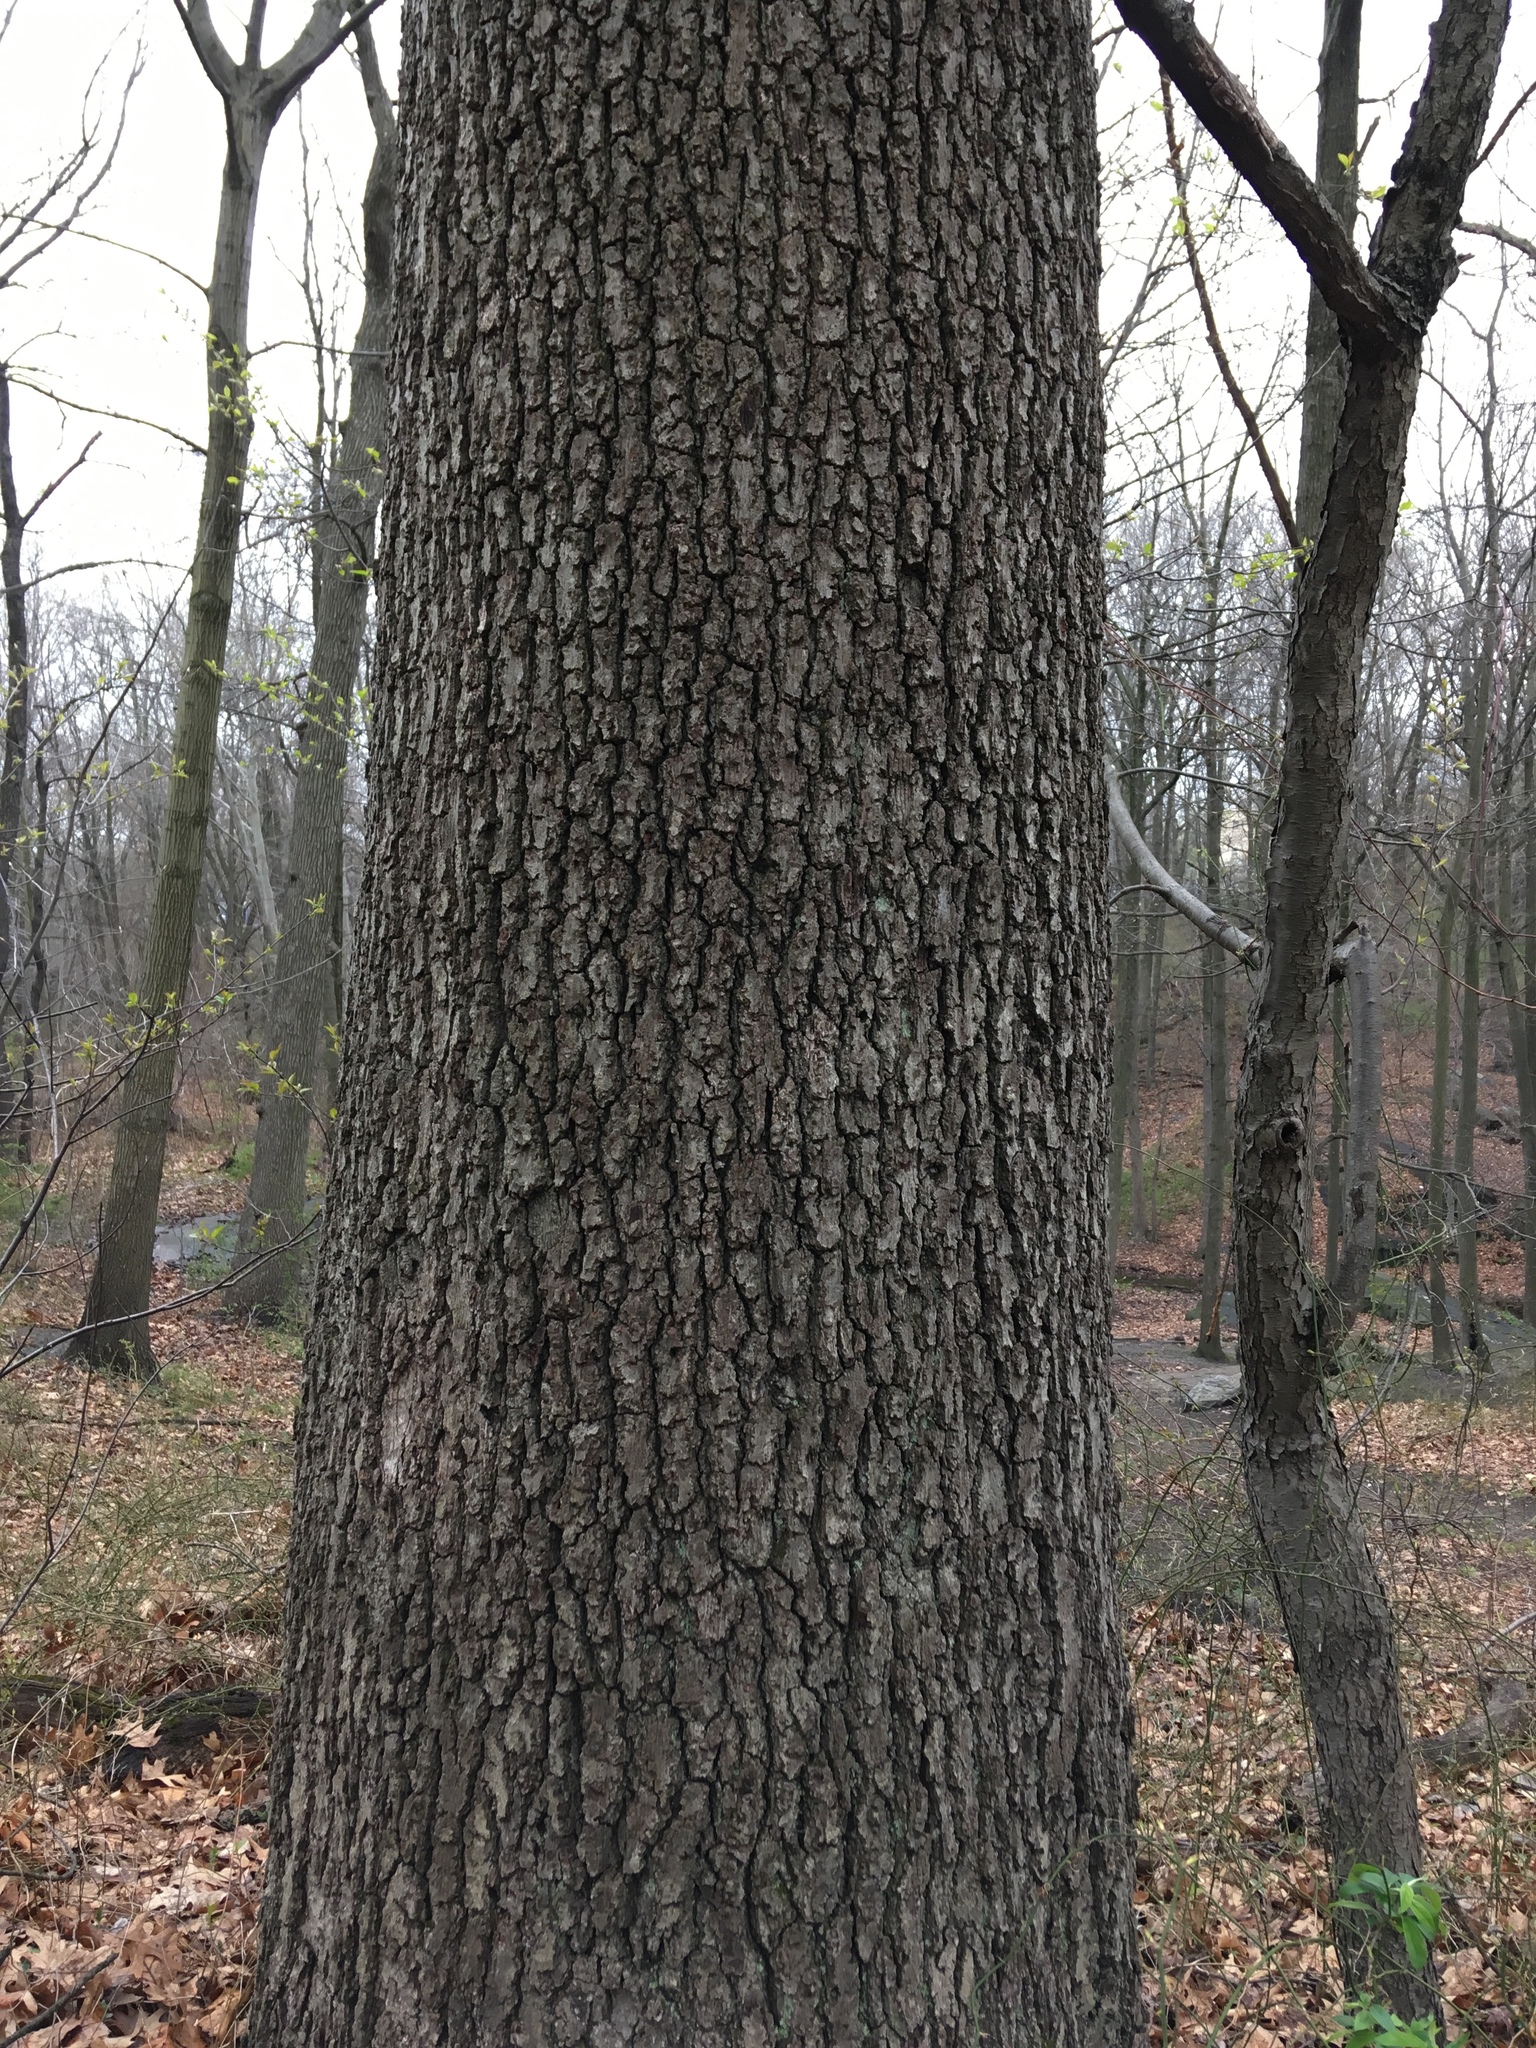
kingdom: Plantae
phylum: Tracheophyta
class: Magnoliopsida
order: Fagales
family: Fagaceae
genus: Quercus
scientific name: Quercus velutina
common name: Black oak
